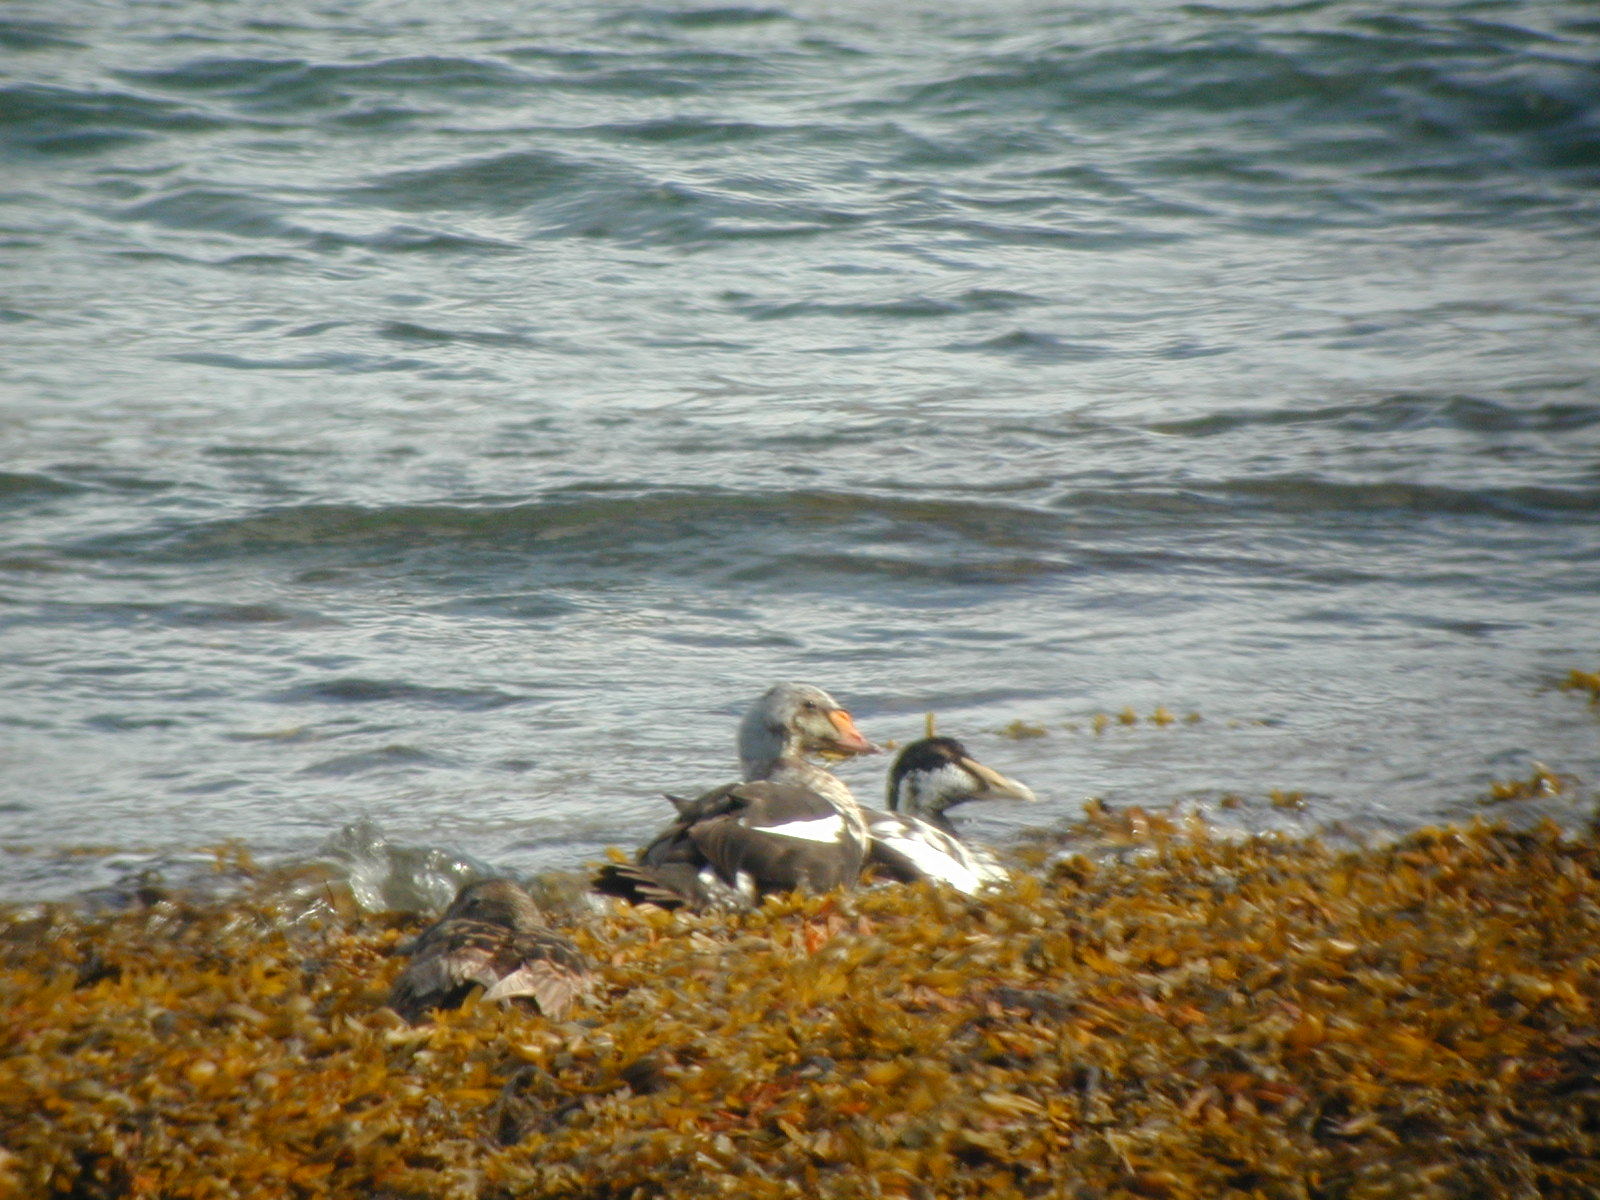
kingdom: Animalia
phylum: Chordata
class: Aves
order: Anseriformes
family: Anatidae
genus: Somateria
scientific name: Somateria spectabilis
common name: King eider
